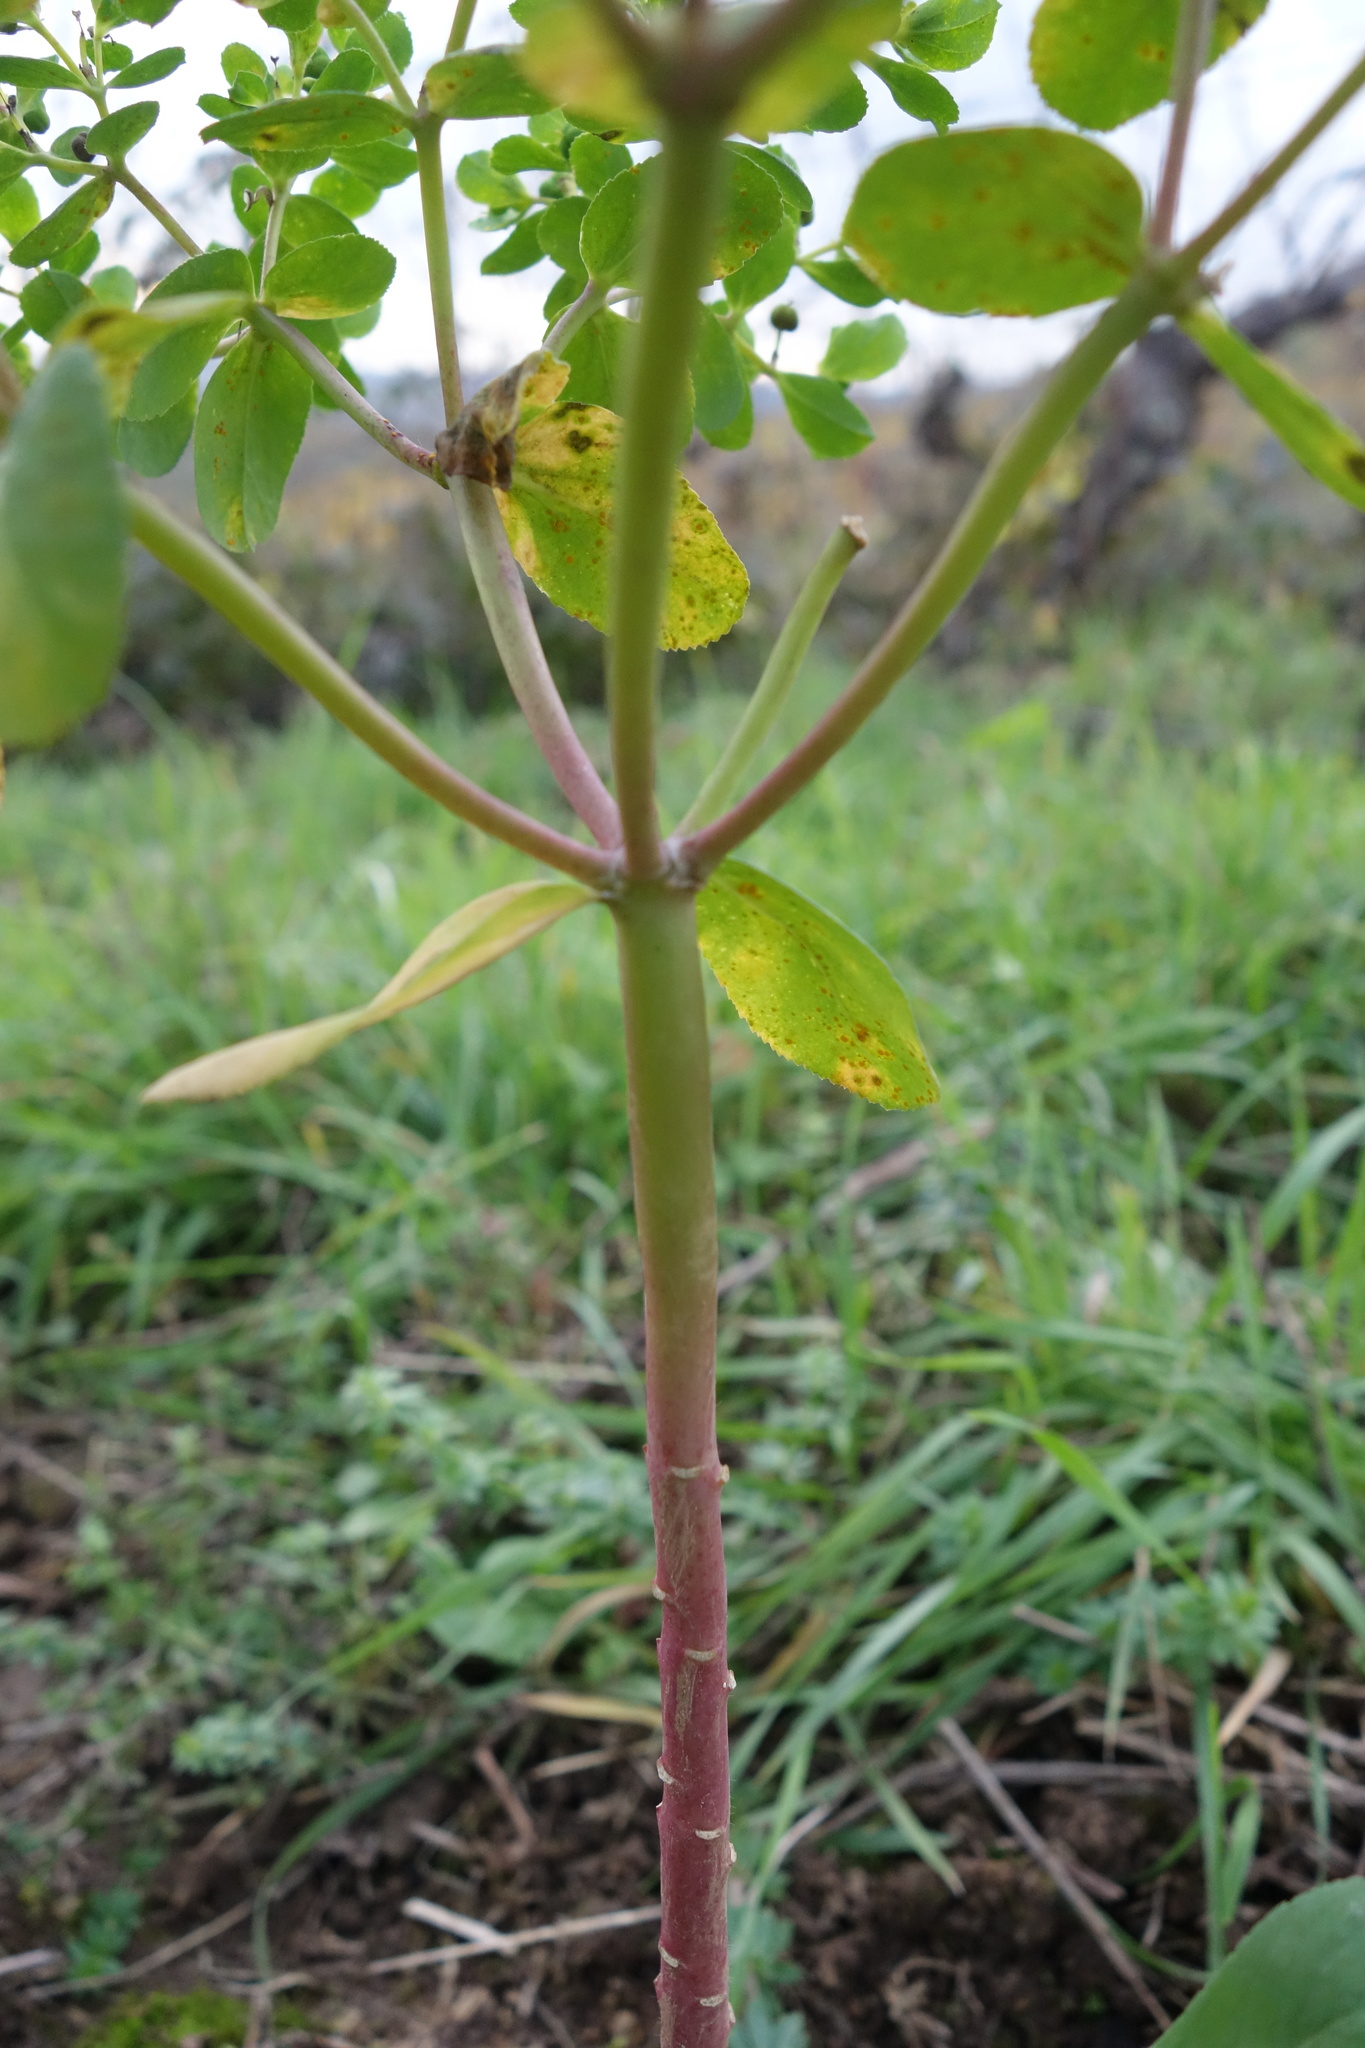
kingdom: Plantae
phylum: Tracheophyta
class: Magnoliopsida
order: Malpighiales
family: Euphorbiaceae
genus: Euphorbia
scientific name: Euphorbia helioscopia
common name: Sun spurge
